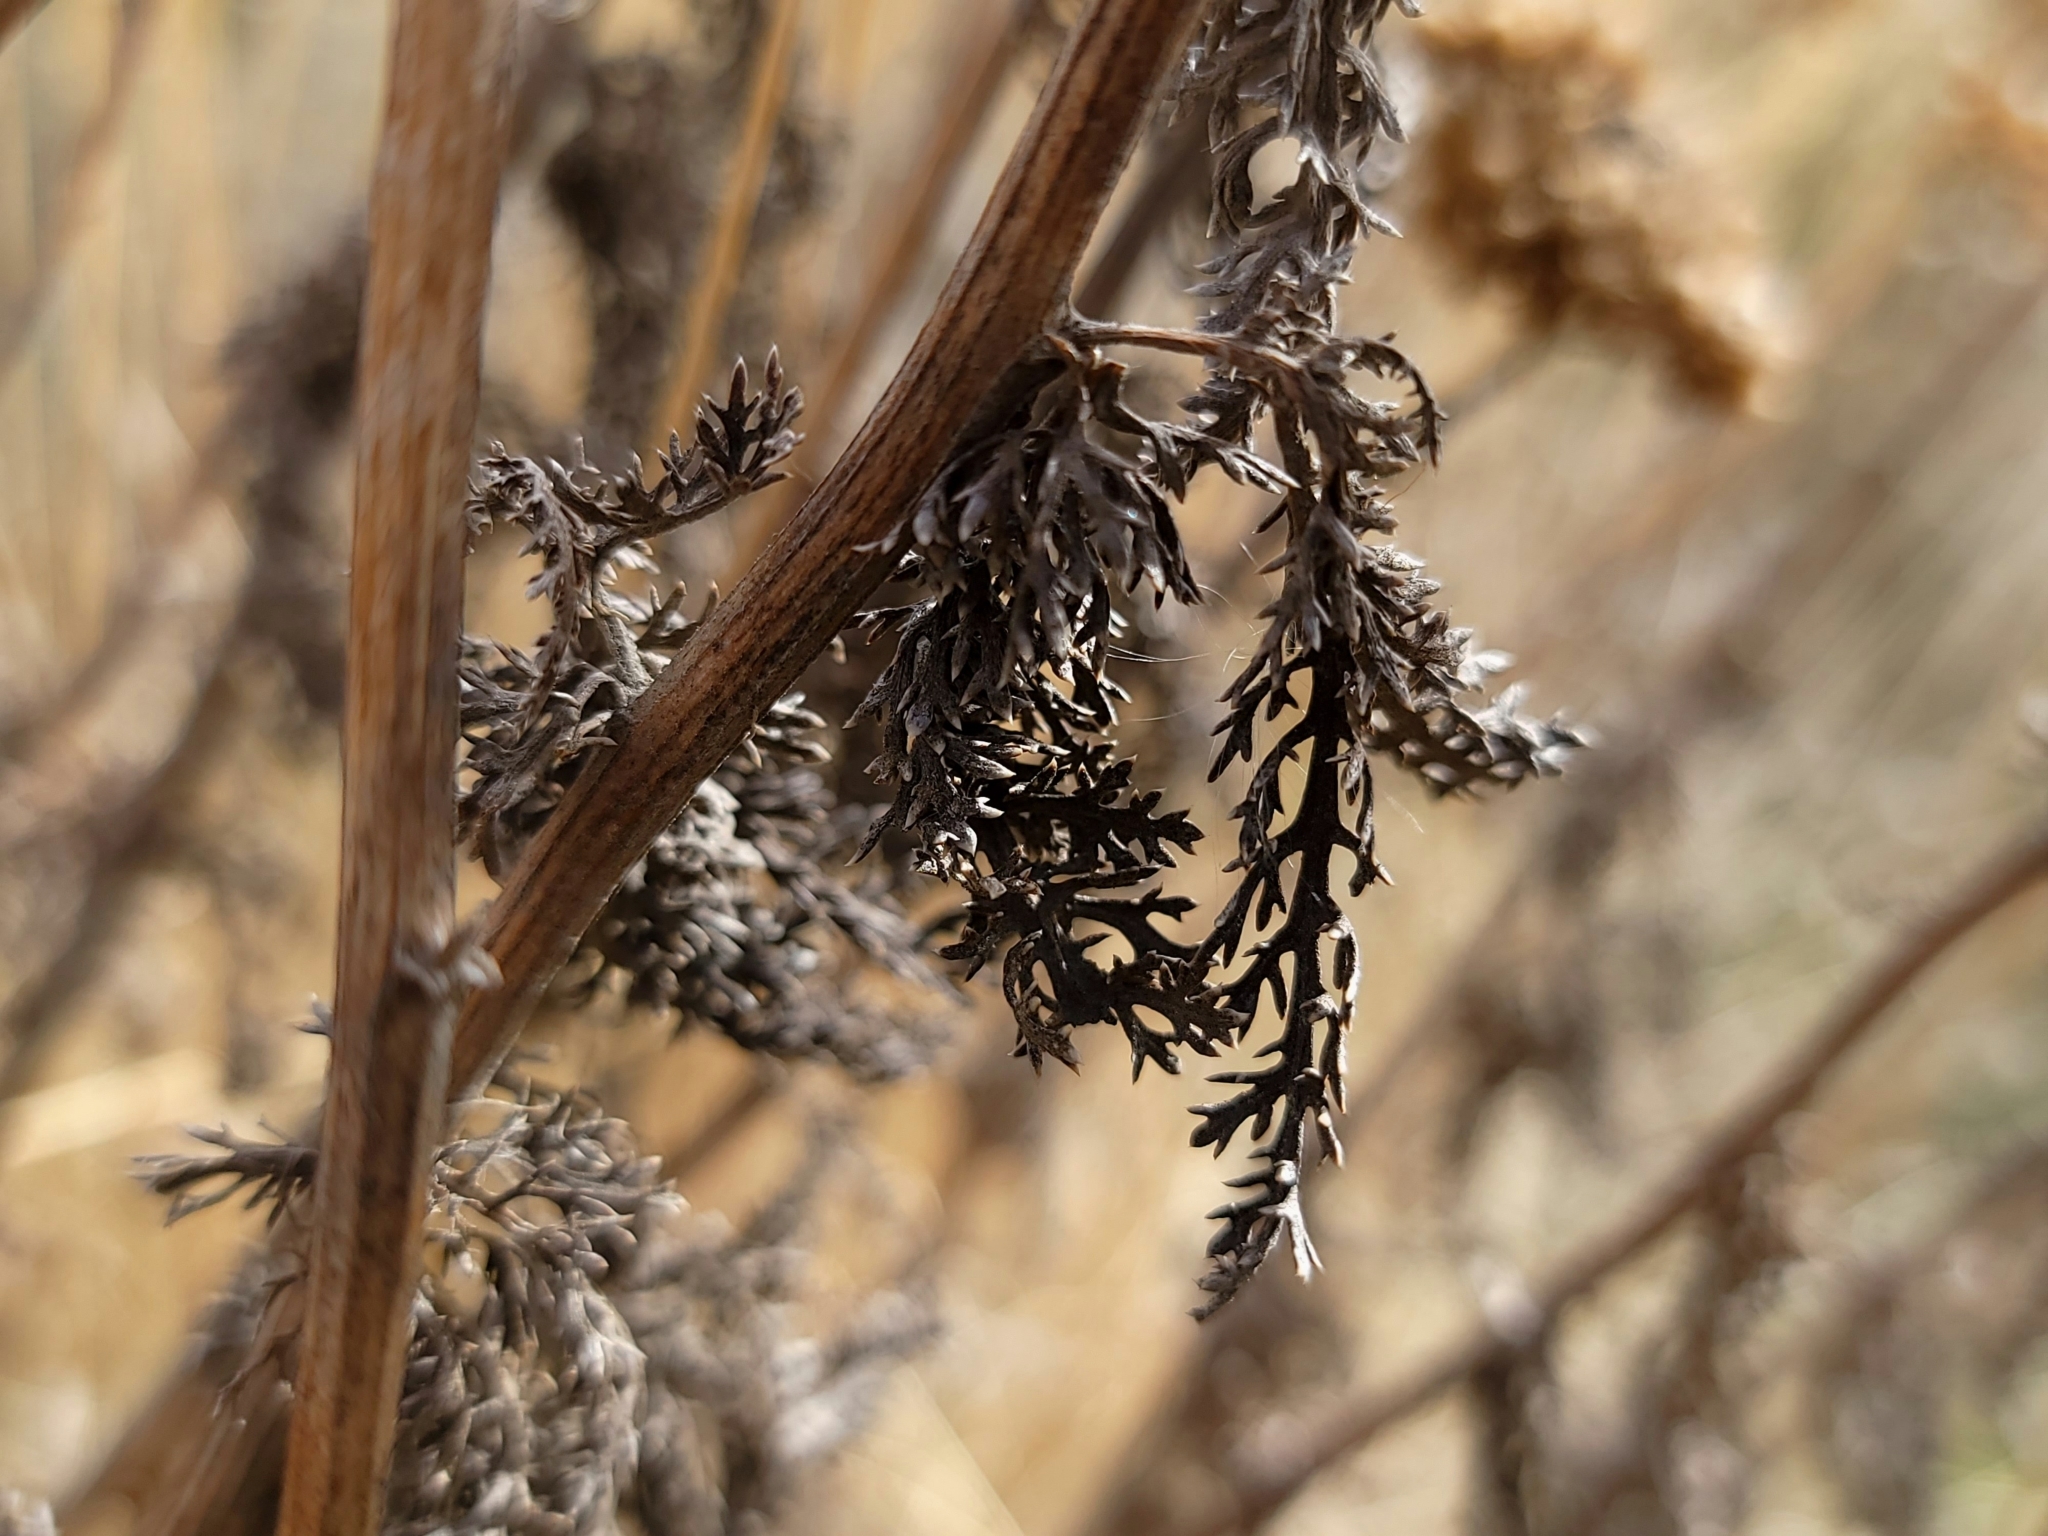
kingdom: Plantae
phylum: Tracheophyta
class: Magnoliopsida
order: Asterales
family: Asteraceae
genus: Achillea
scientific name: Achillea millefolium
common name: Yarrow
